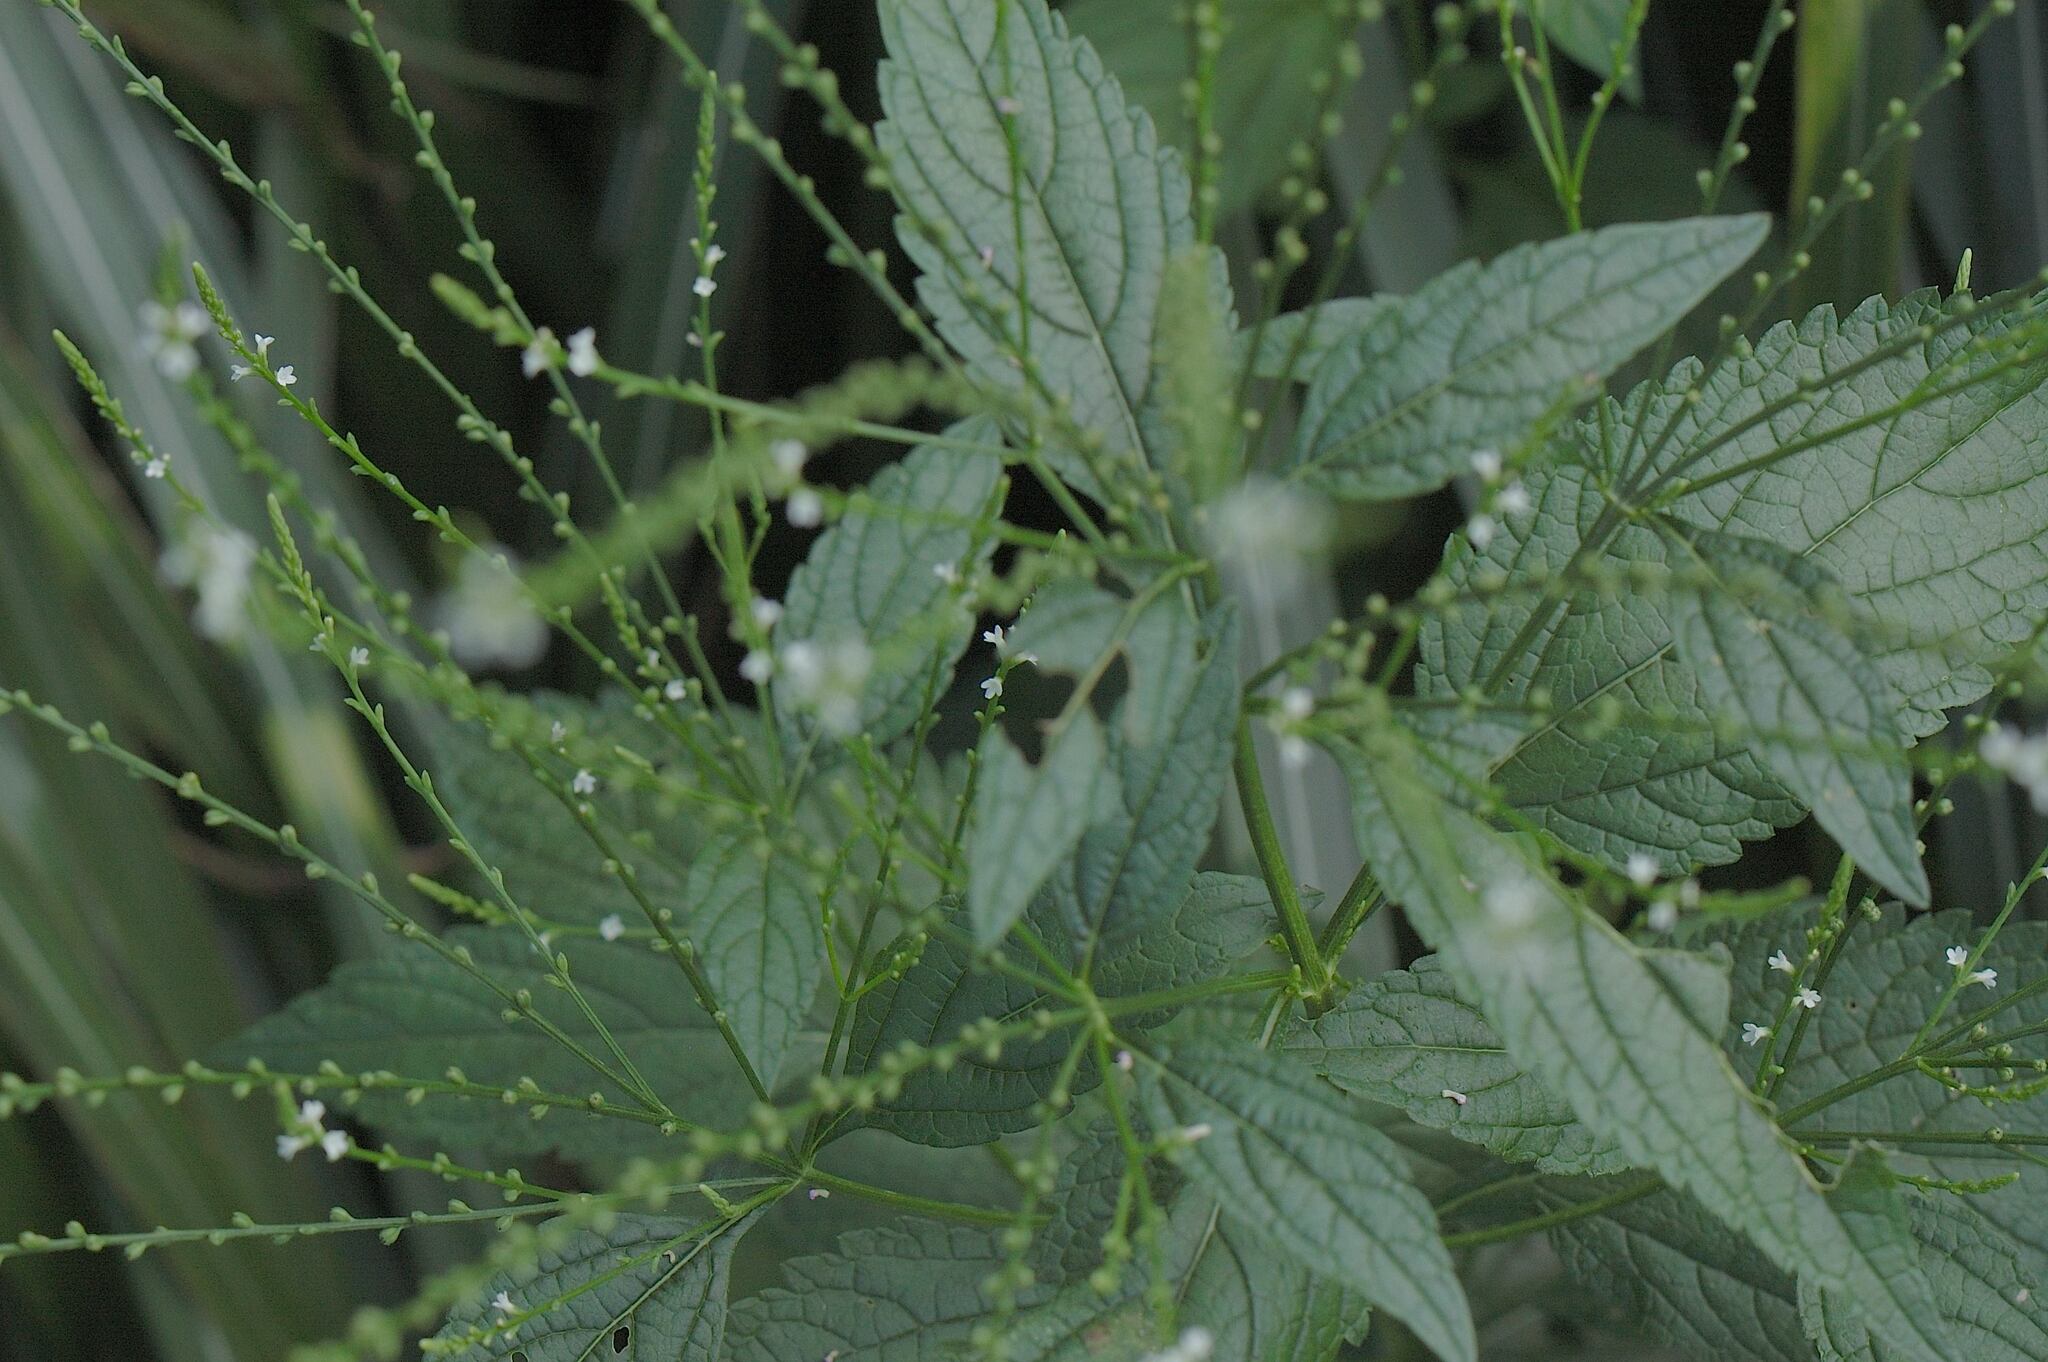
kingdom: Plantae
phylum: Tracheophyta
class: Magnoliopsida
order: Lamiales
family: Verbenaceae
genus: Verbena
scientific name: Verbena urticifolia
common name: Nettle-leaved vervain
